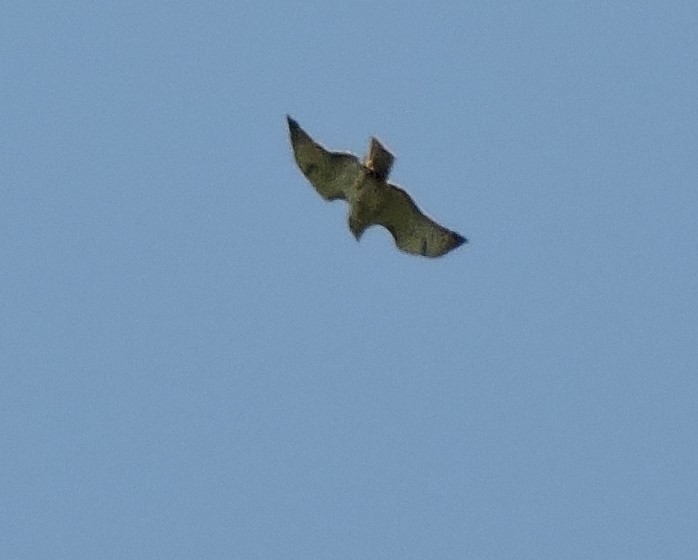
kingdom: Animalia
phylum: Chordata
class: Aves
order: Accipitriformes
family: Accipitridae
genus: Buteo
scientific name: Buteo jamaicensis
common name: Red-tailed hawk
